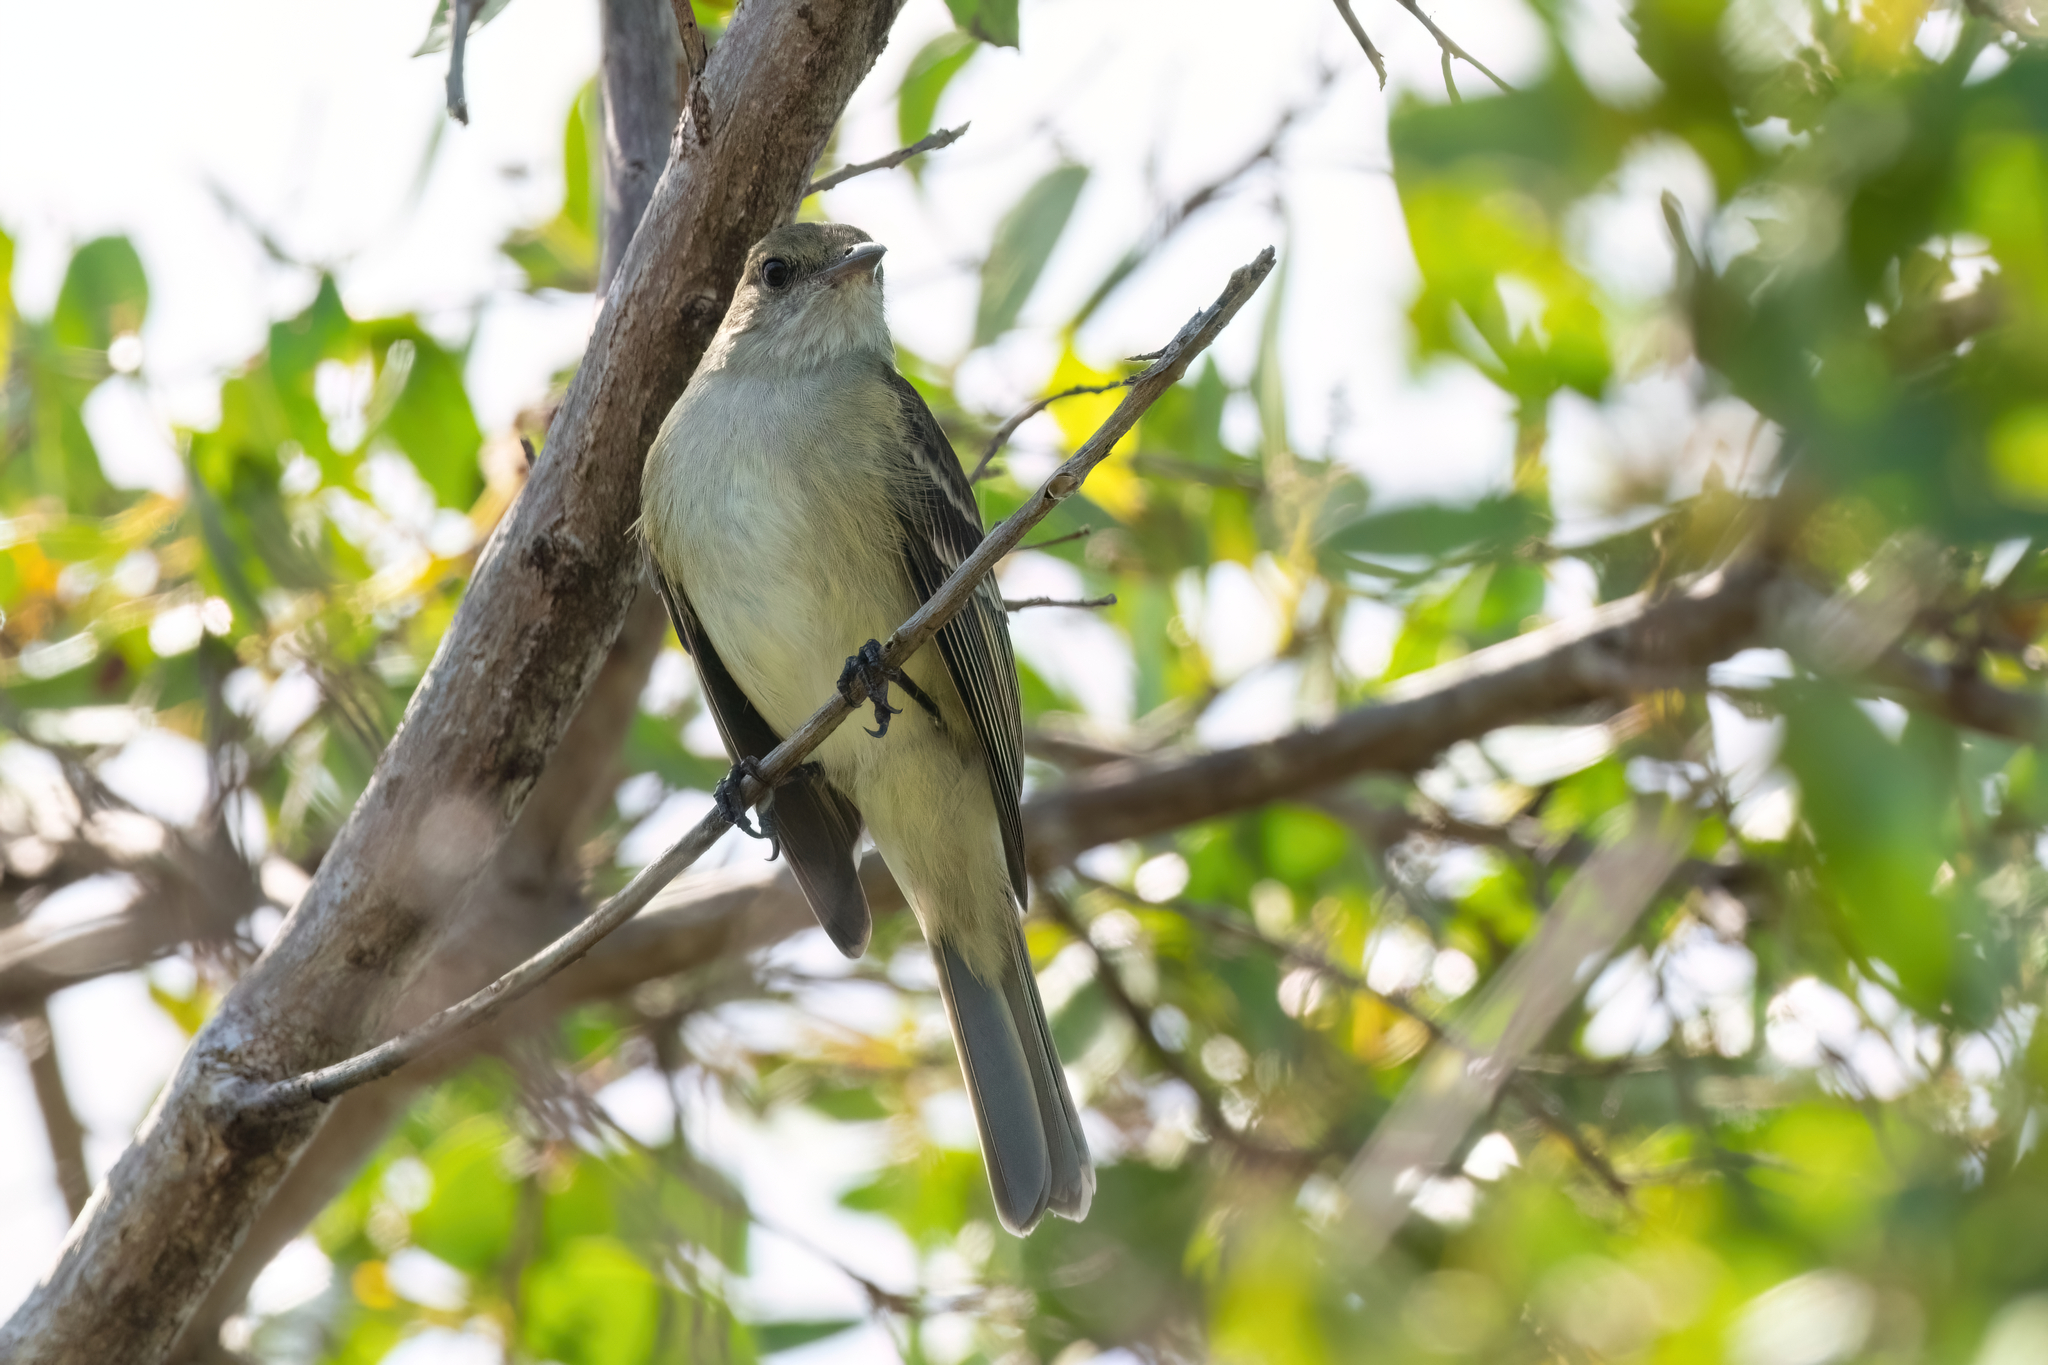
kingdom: Animalia
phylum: Chordata
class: Aves
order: Passeriformes
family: Tyrannidae
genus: Elaenia
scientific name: Elaenia martinica
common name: Caribbean elaenia
